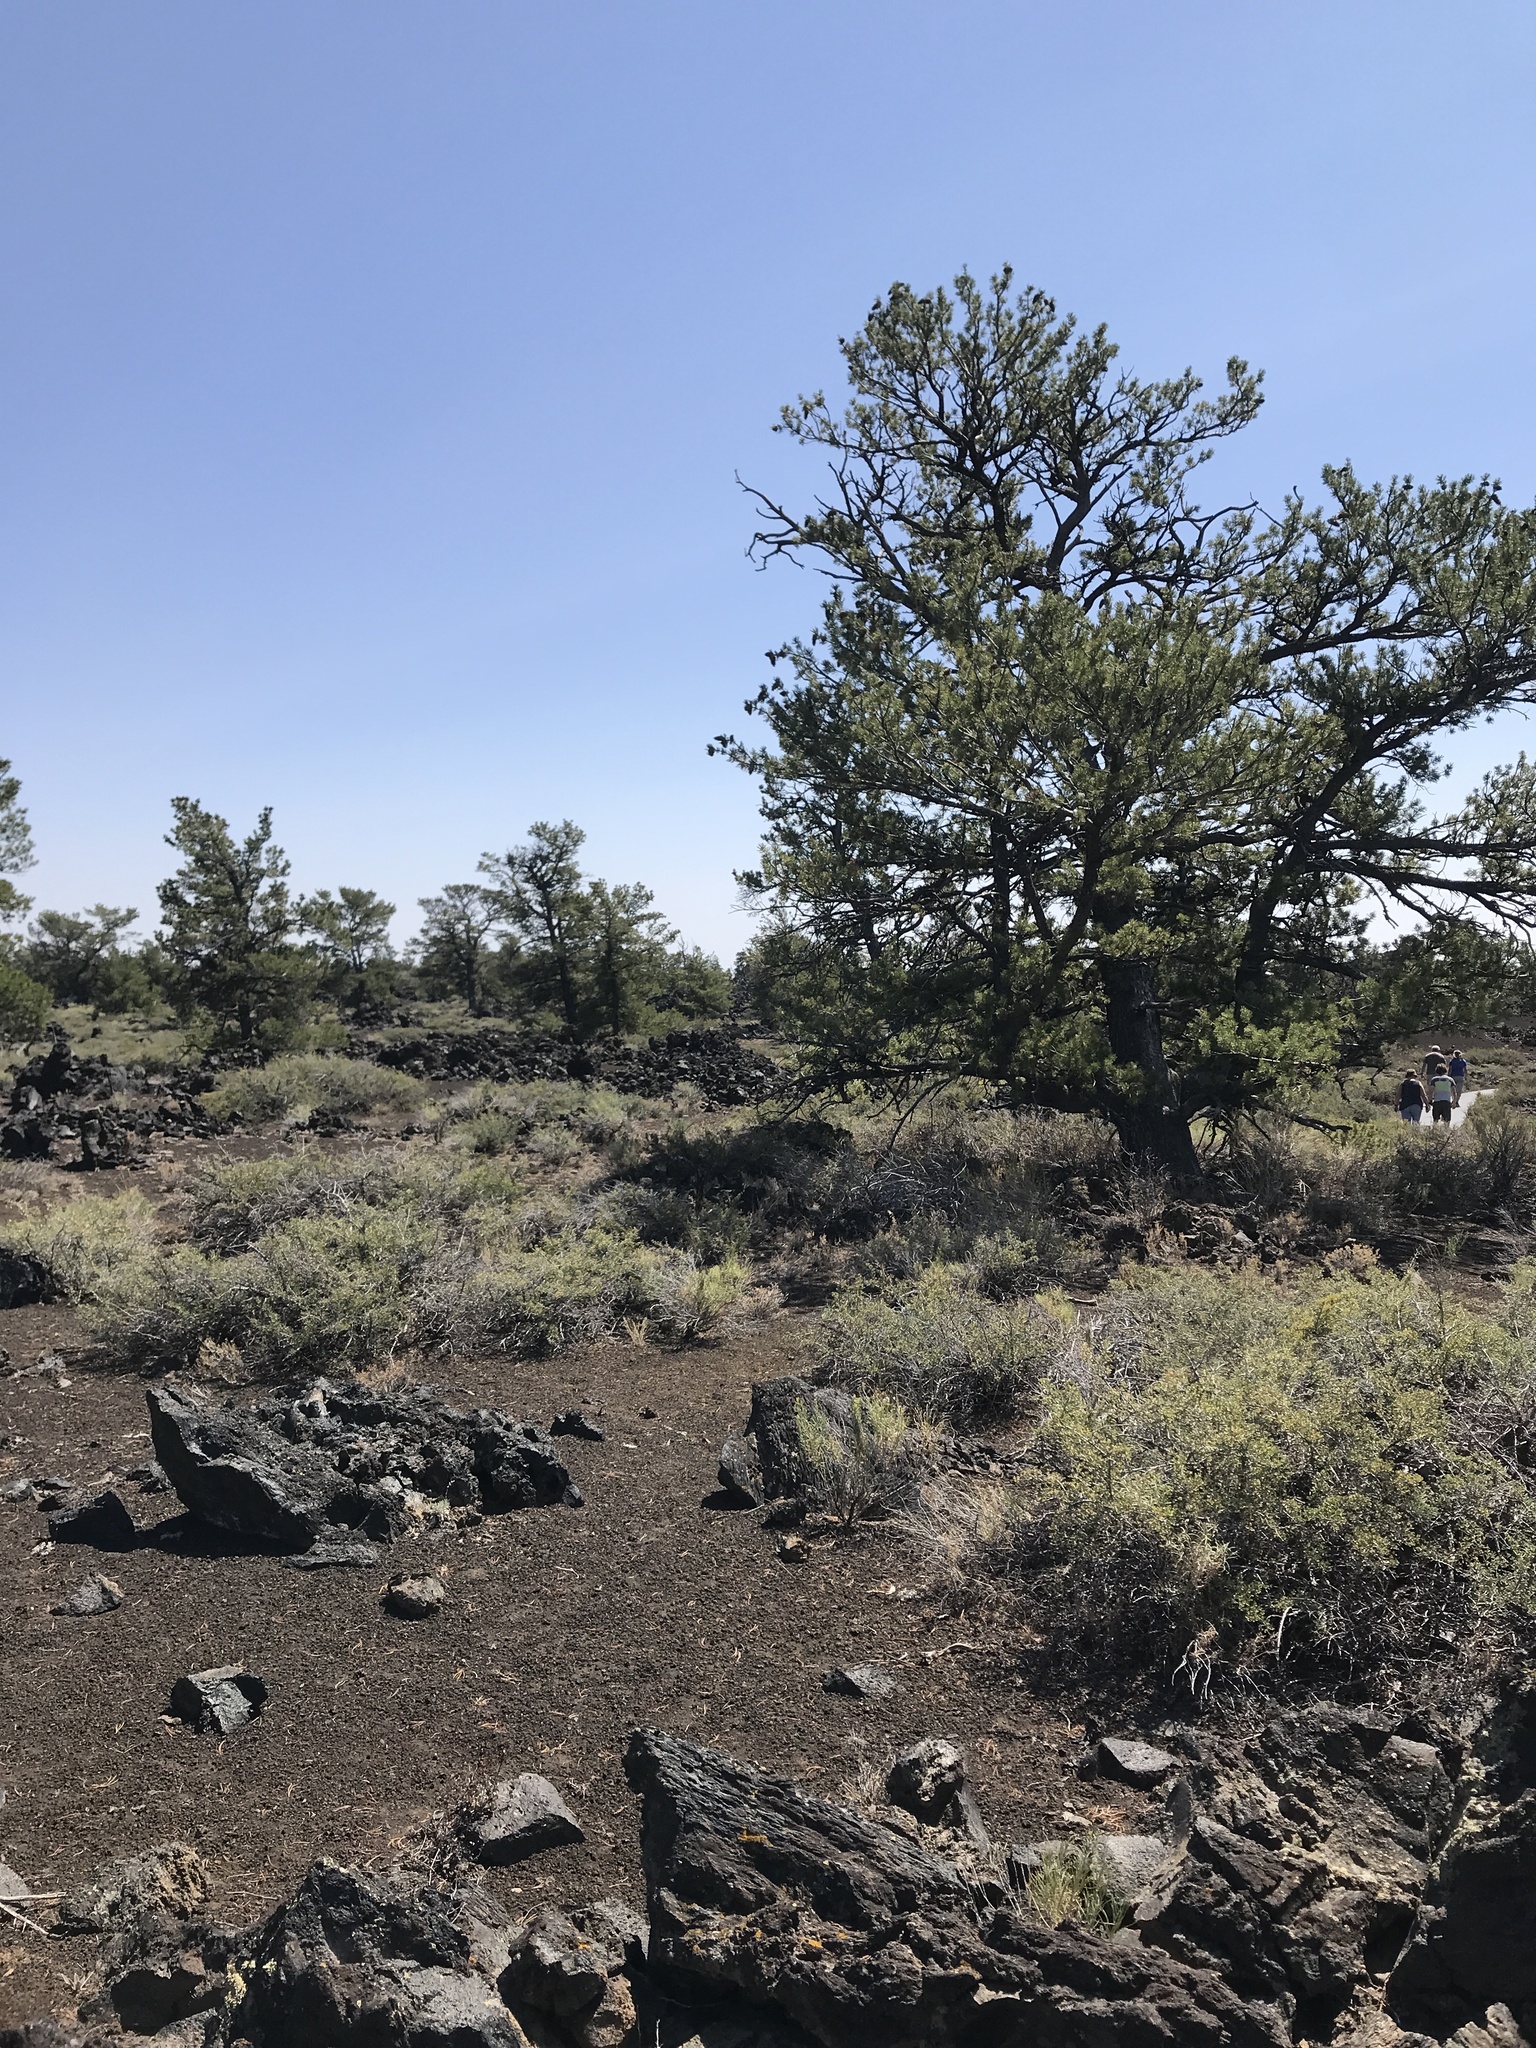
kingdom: Plantae
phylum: Tracheophyta
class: Pinopsida
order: Pinales
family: Pinaceae
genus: Pinus
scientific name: Pinus flexilis
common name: Limber pine
